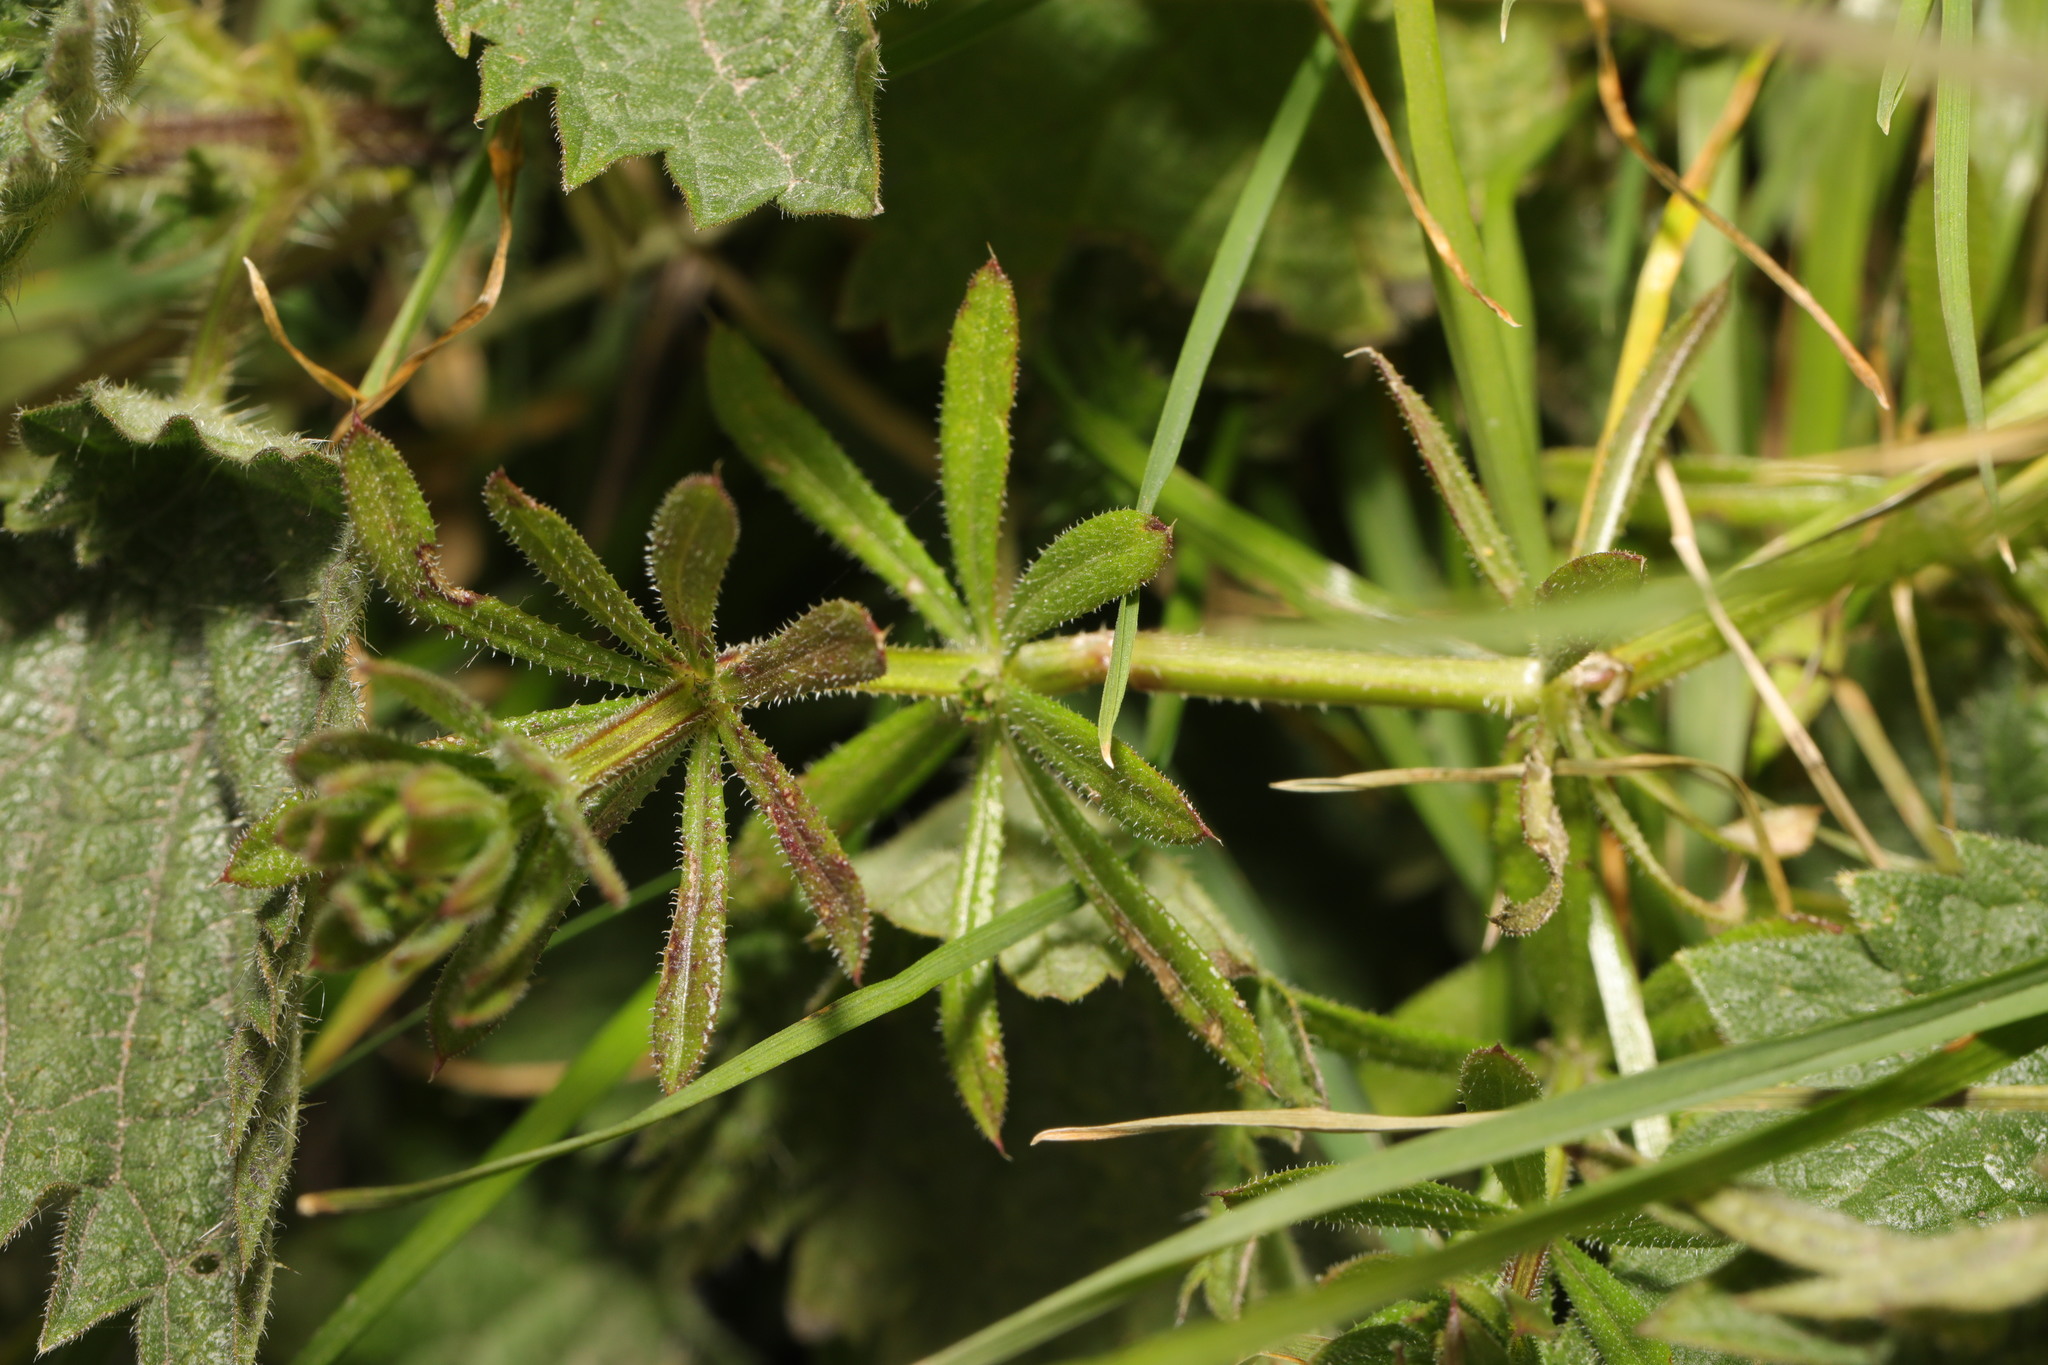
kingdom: Plantae
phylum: Tracheophyta
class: Magnoliopsida
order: Gentianales
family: Rubiaceae
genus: Galium
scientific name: Galium aparine
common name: Cleavers
